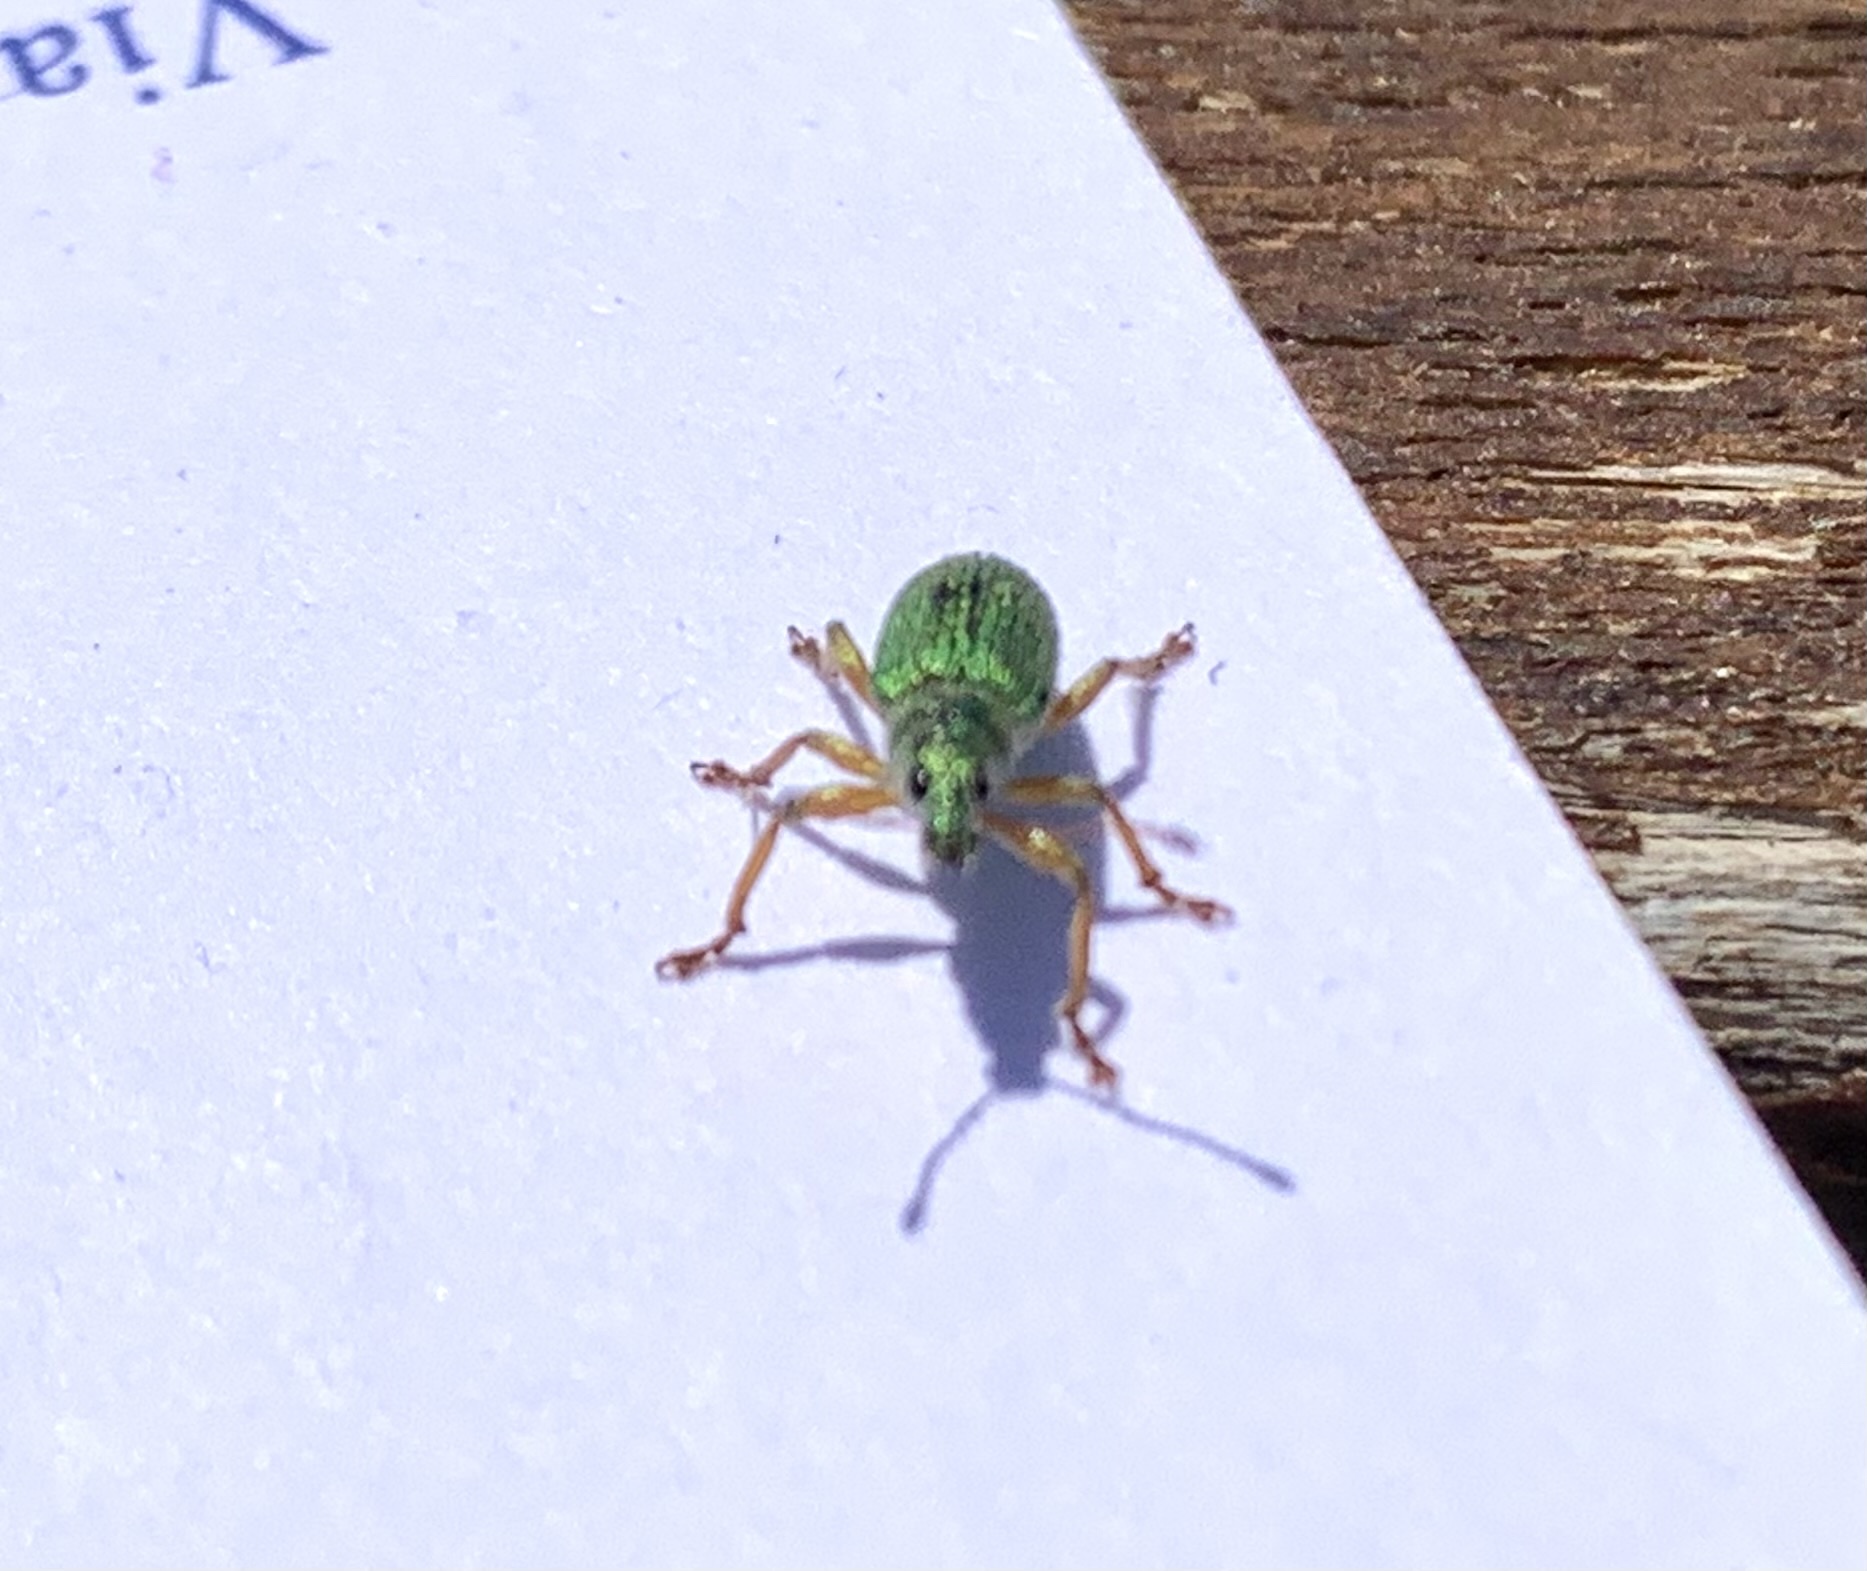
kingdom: Animalia
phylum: Arthropoda
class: Insecta
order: Coleoptera
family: Curculionidae
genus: Polydrusus
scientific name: Polydrusus formosus
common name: Weevil
